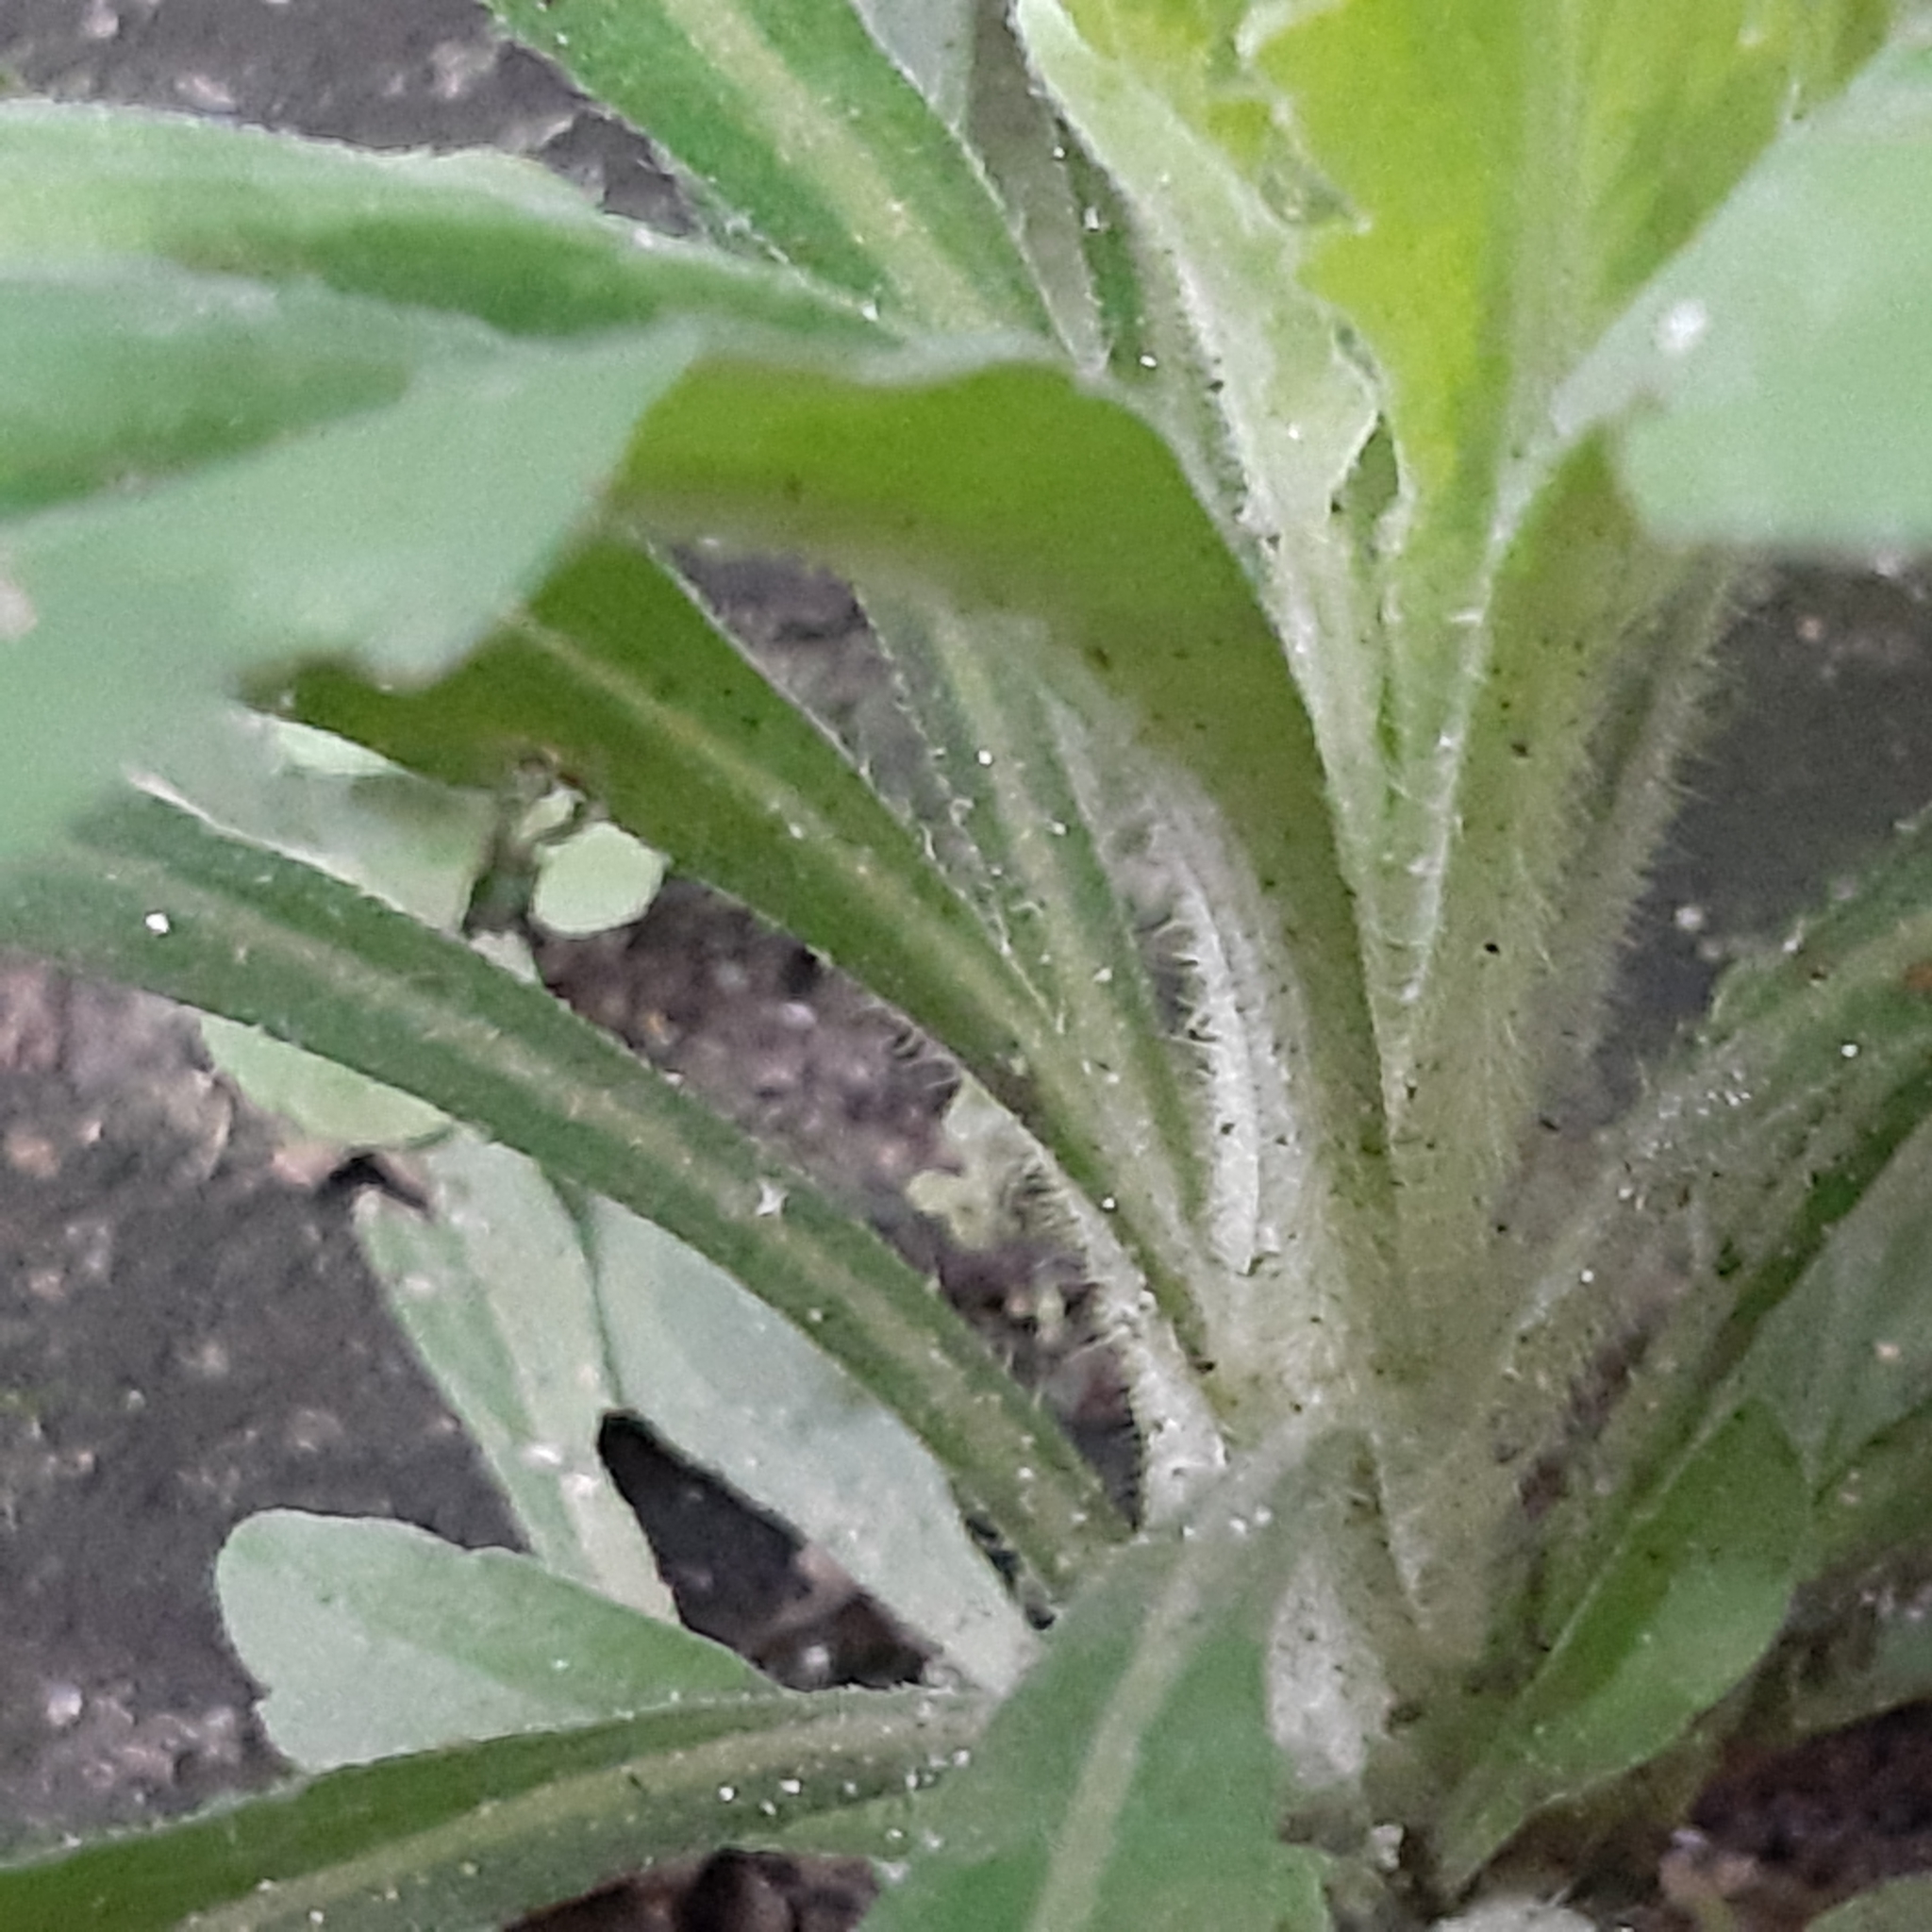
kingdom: Plantae
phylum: Tracheophyta
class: Magnoliopsida
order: Asterales
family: Asteraceae
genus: Erigeron
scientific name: Erigeron sumatrensis
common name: Daisy
